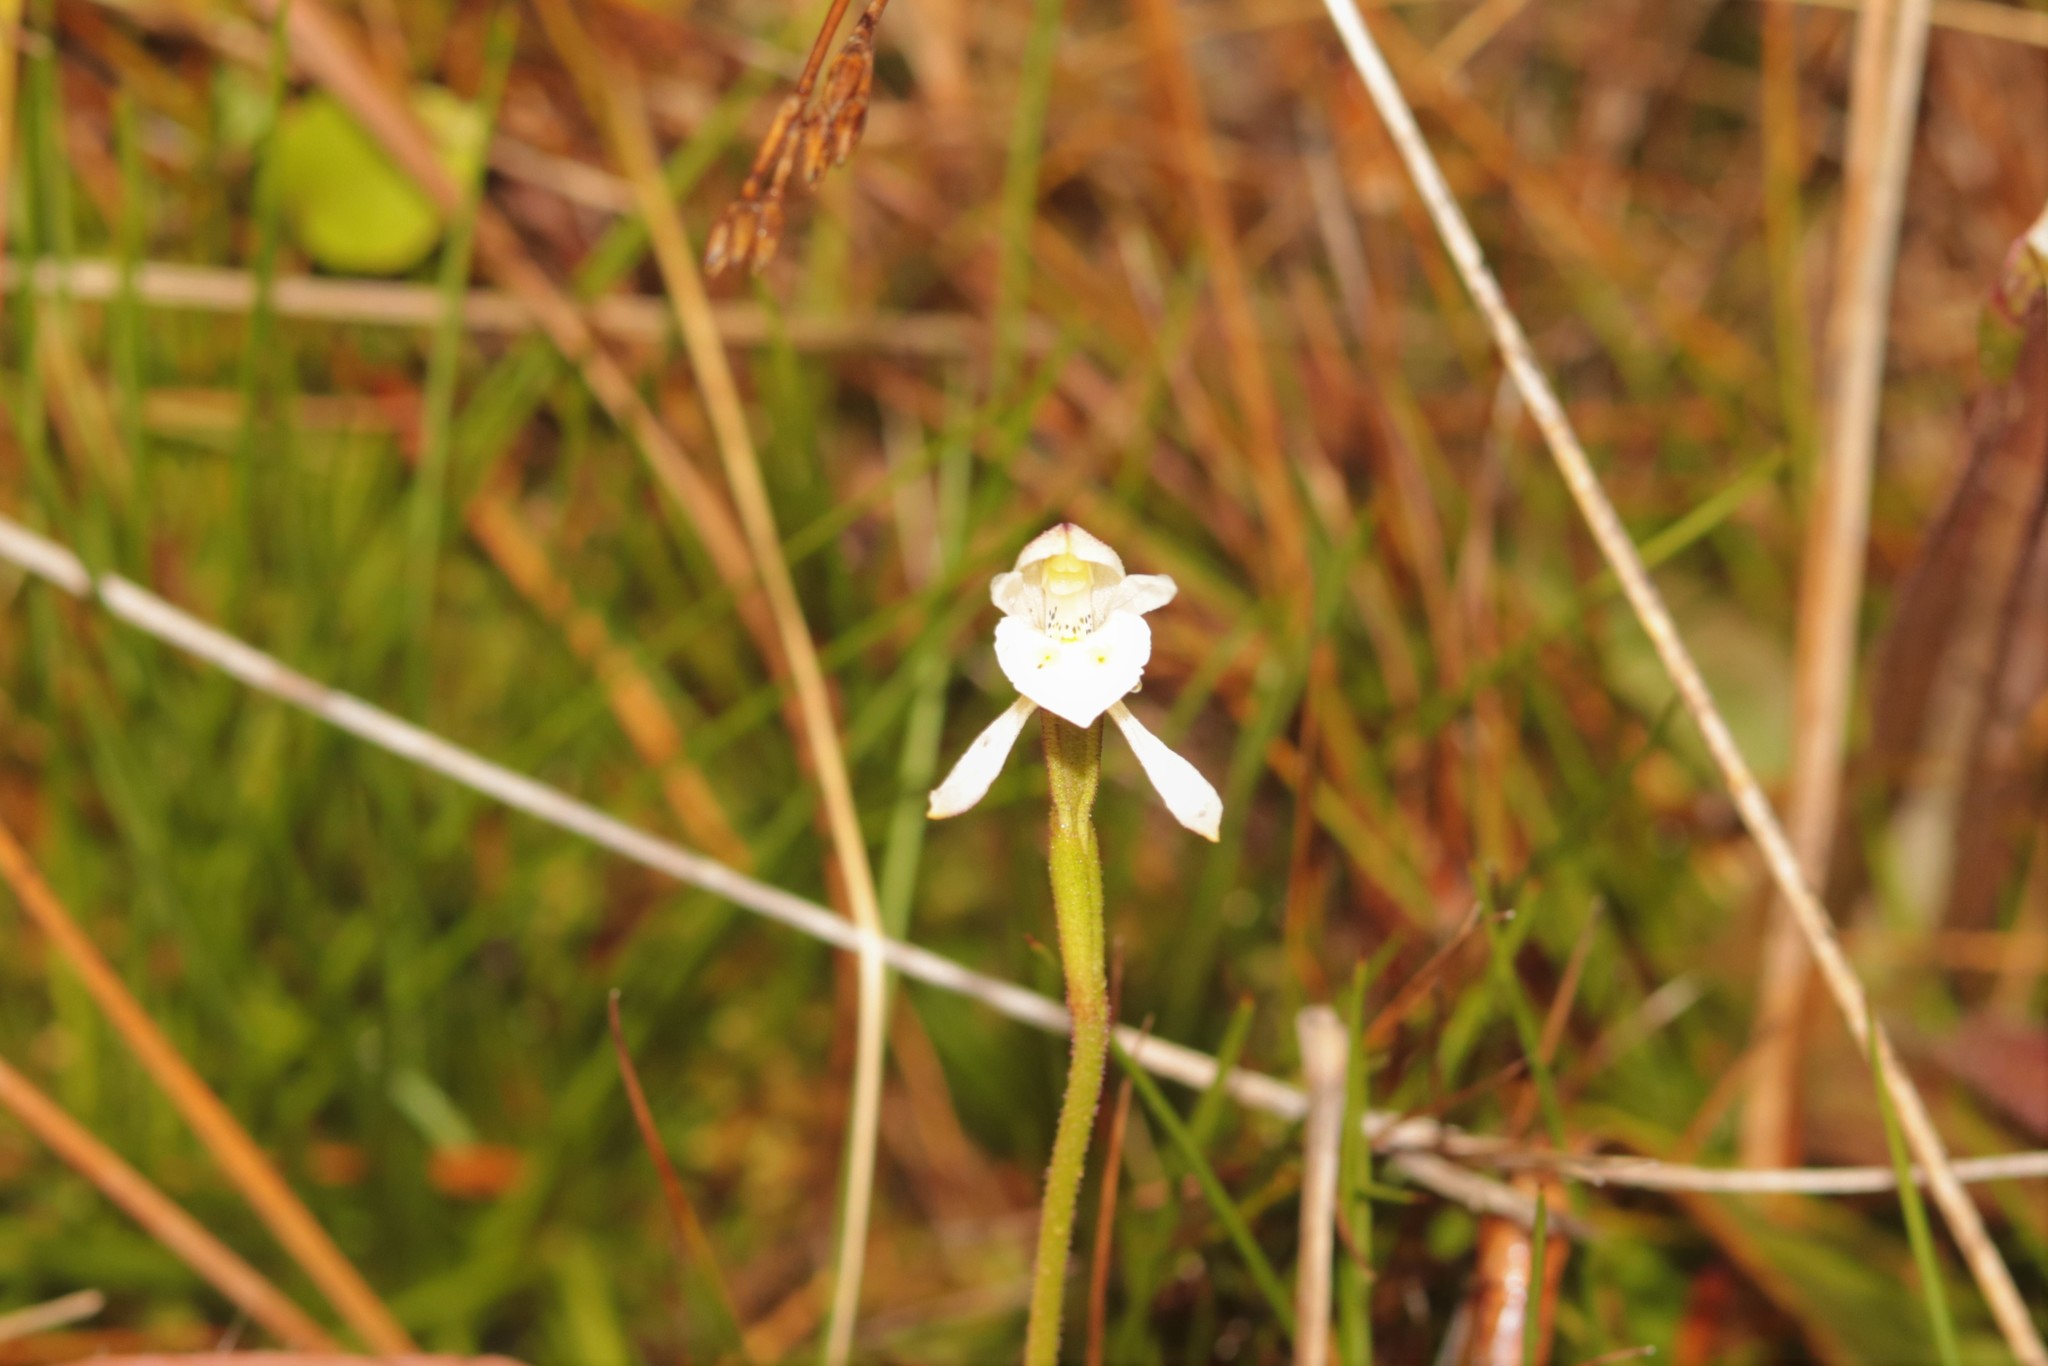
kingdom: Plantae
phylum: Tracheophyta
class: Liliopsida
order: Asparagales
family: Orchidaceae
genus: Aporostylis
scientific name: Aporostylis bifolia
